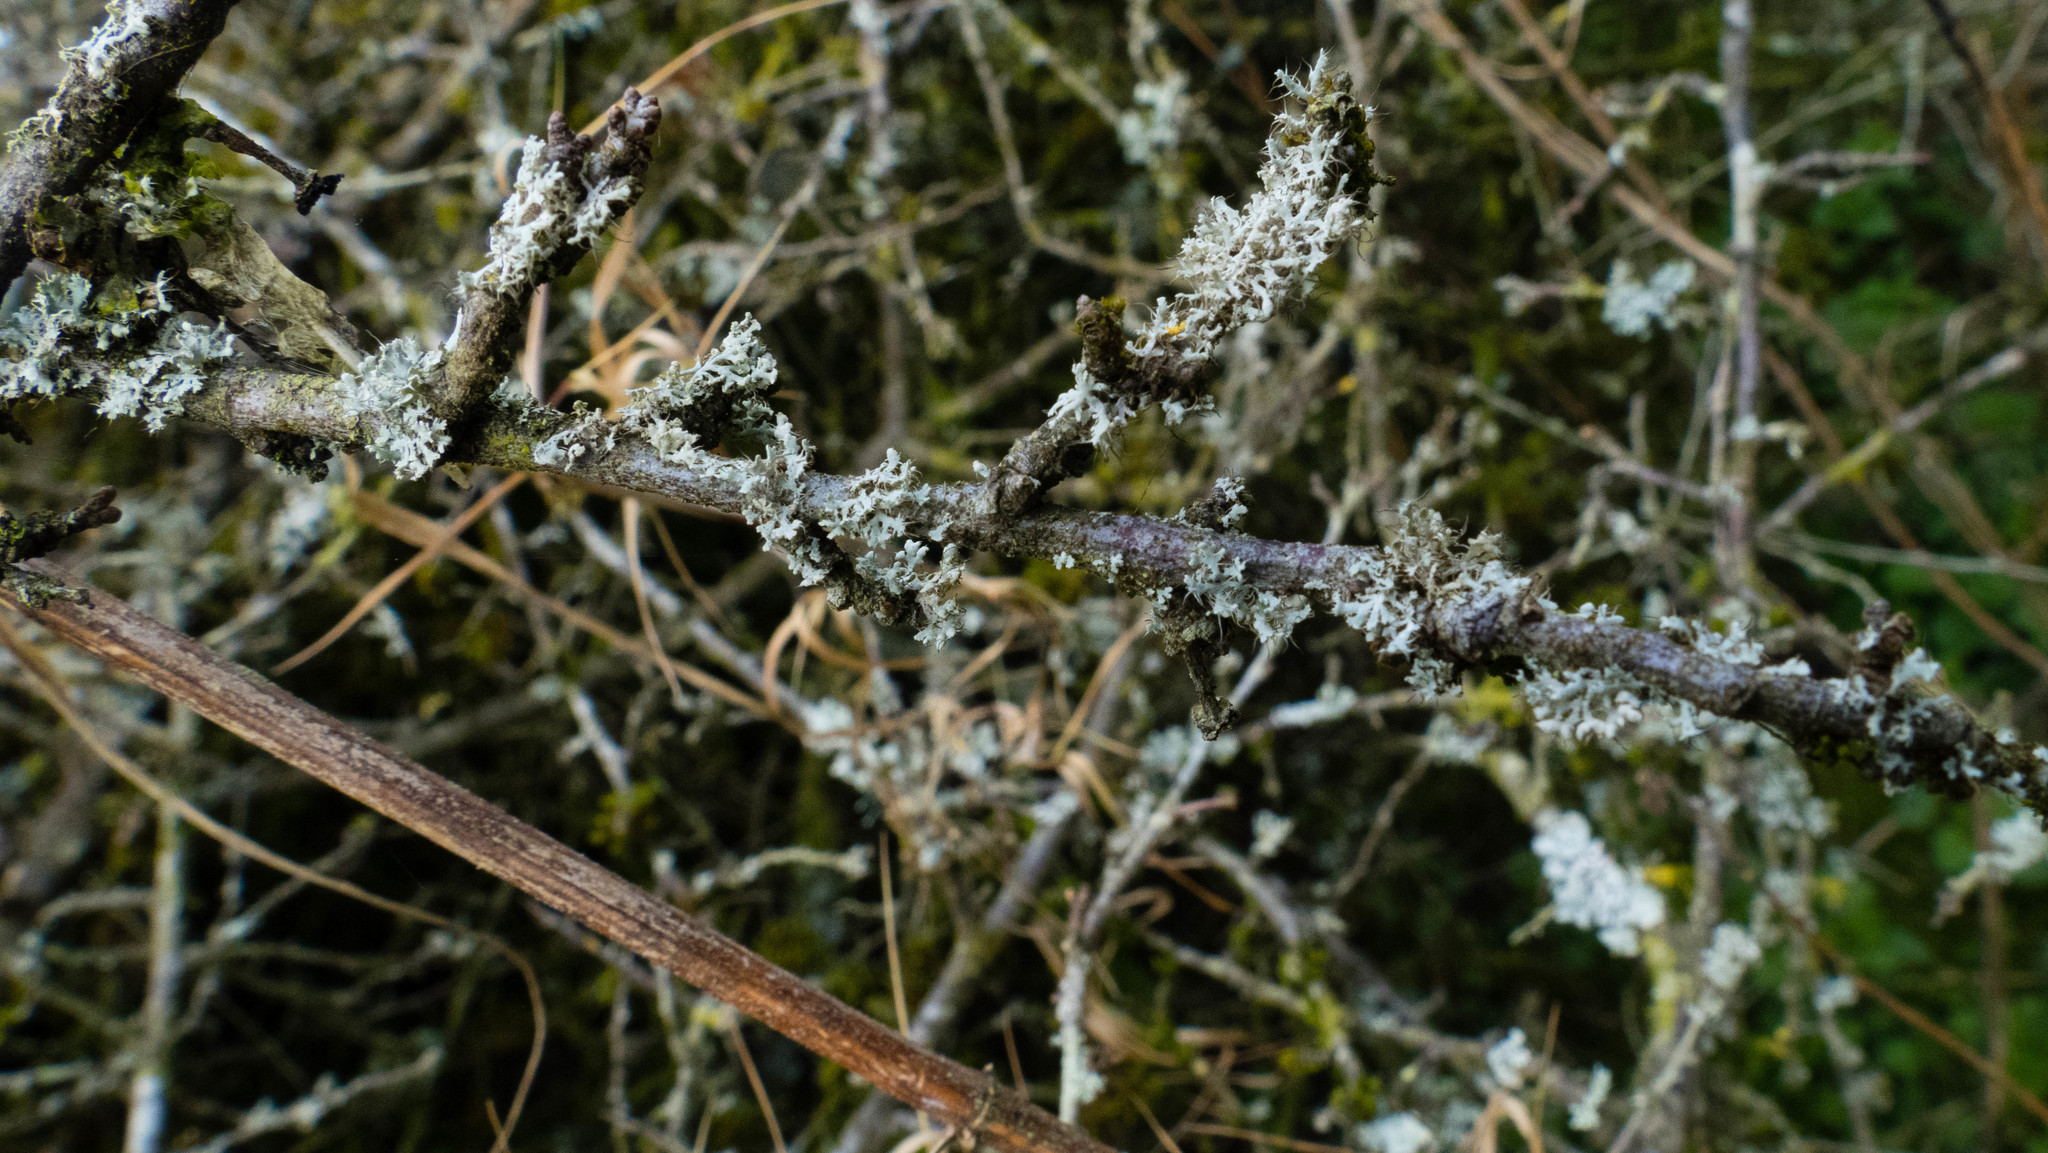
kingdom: Fungi
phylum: Ascomycota
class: Lecanoromycetes
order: Caliciales
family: Physciaceae
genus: Physcia
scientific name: Physcia adscendens
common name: Hooded rosette lichen
